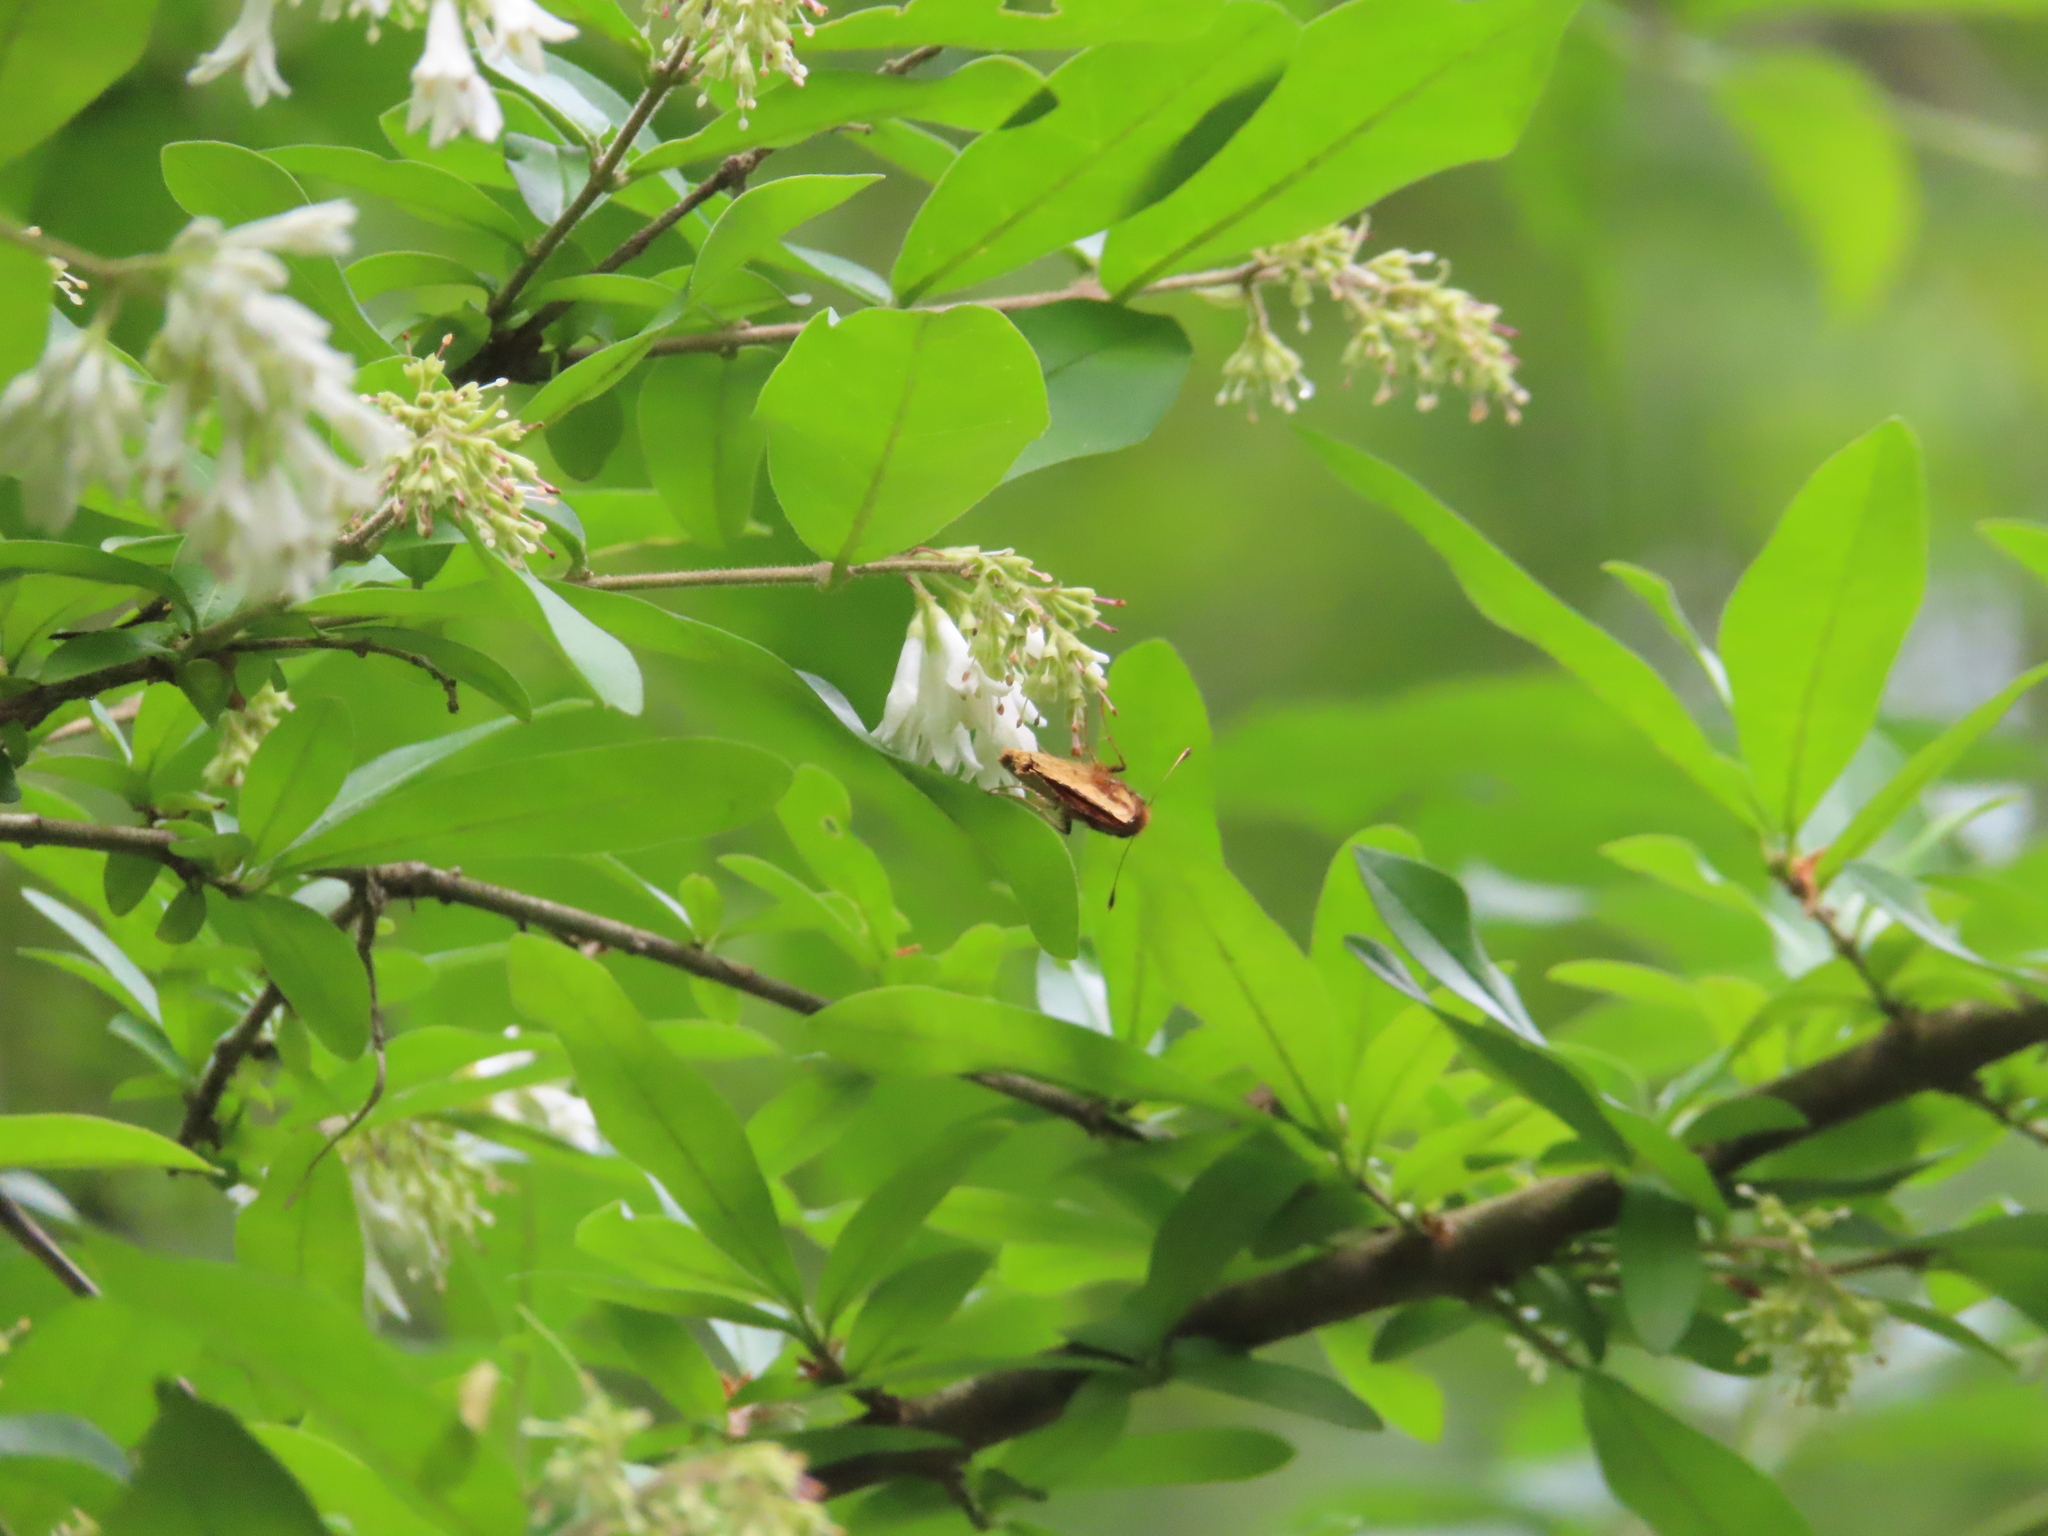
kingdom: Animalia
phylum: Arthropoda
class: Insecta
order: Lepidoptera
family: Hesperiidae
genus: Lon
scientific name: Lon zabulon
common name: Zabulon skipper
